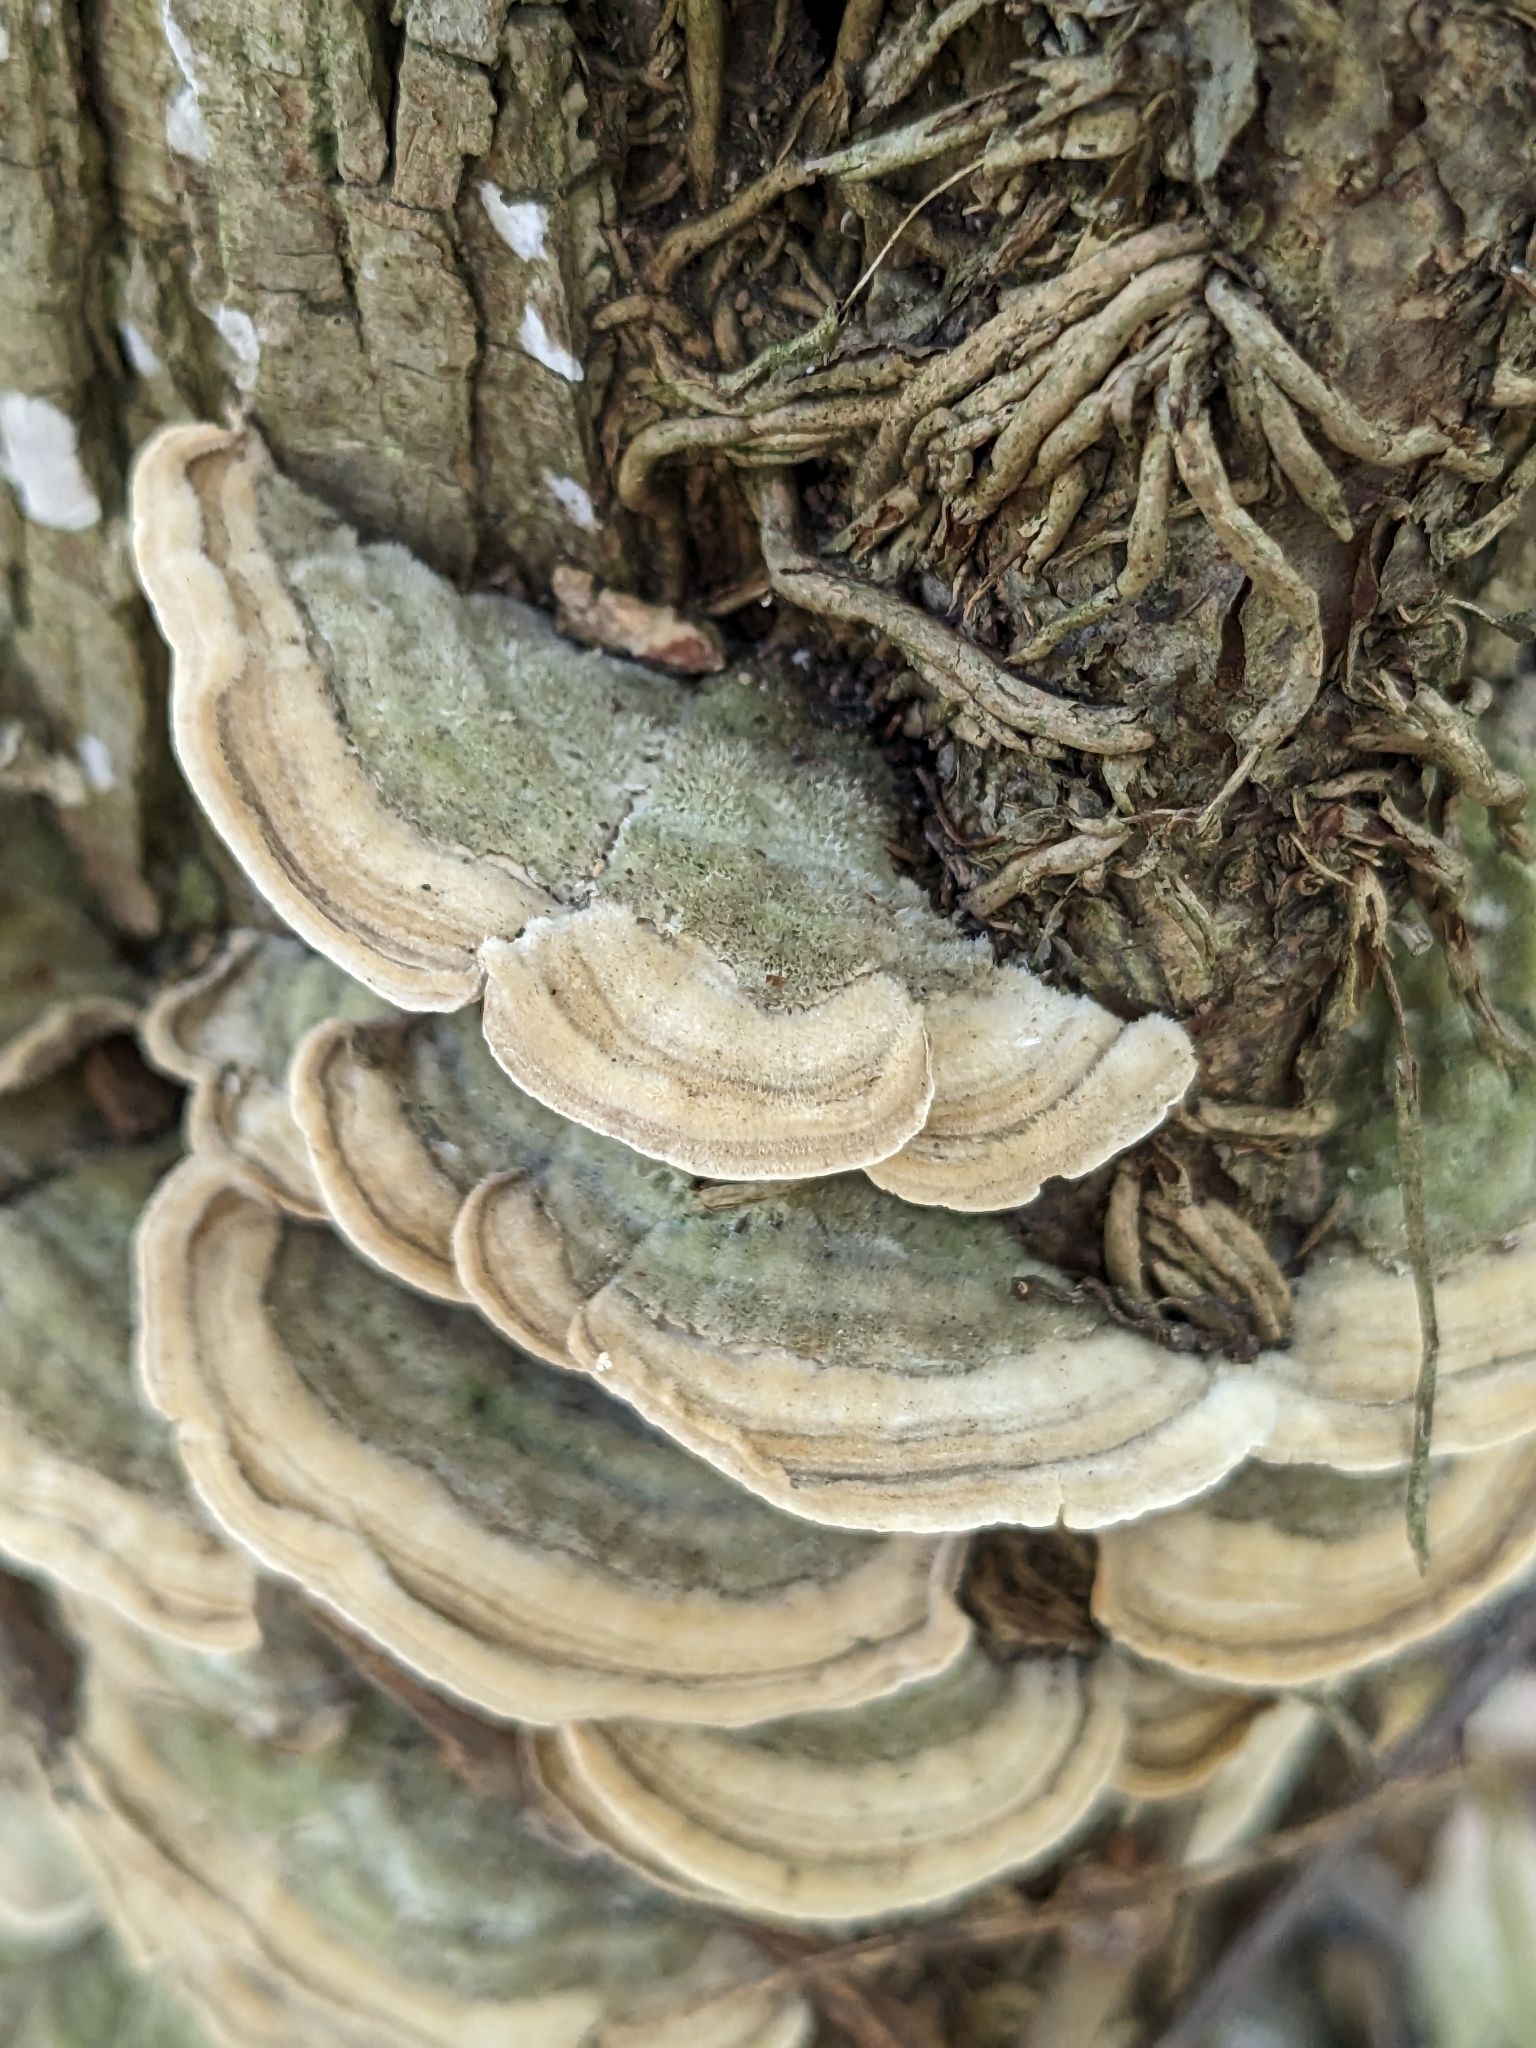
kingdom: Fungi
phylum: Basidiomycota
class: Agaricomycetes
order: Polyporales
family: Cerrenaceae
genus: Cerrena
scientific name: Cerrena unicolor
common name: Mossy maze polypore
